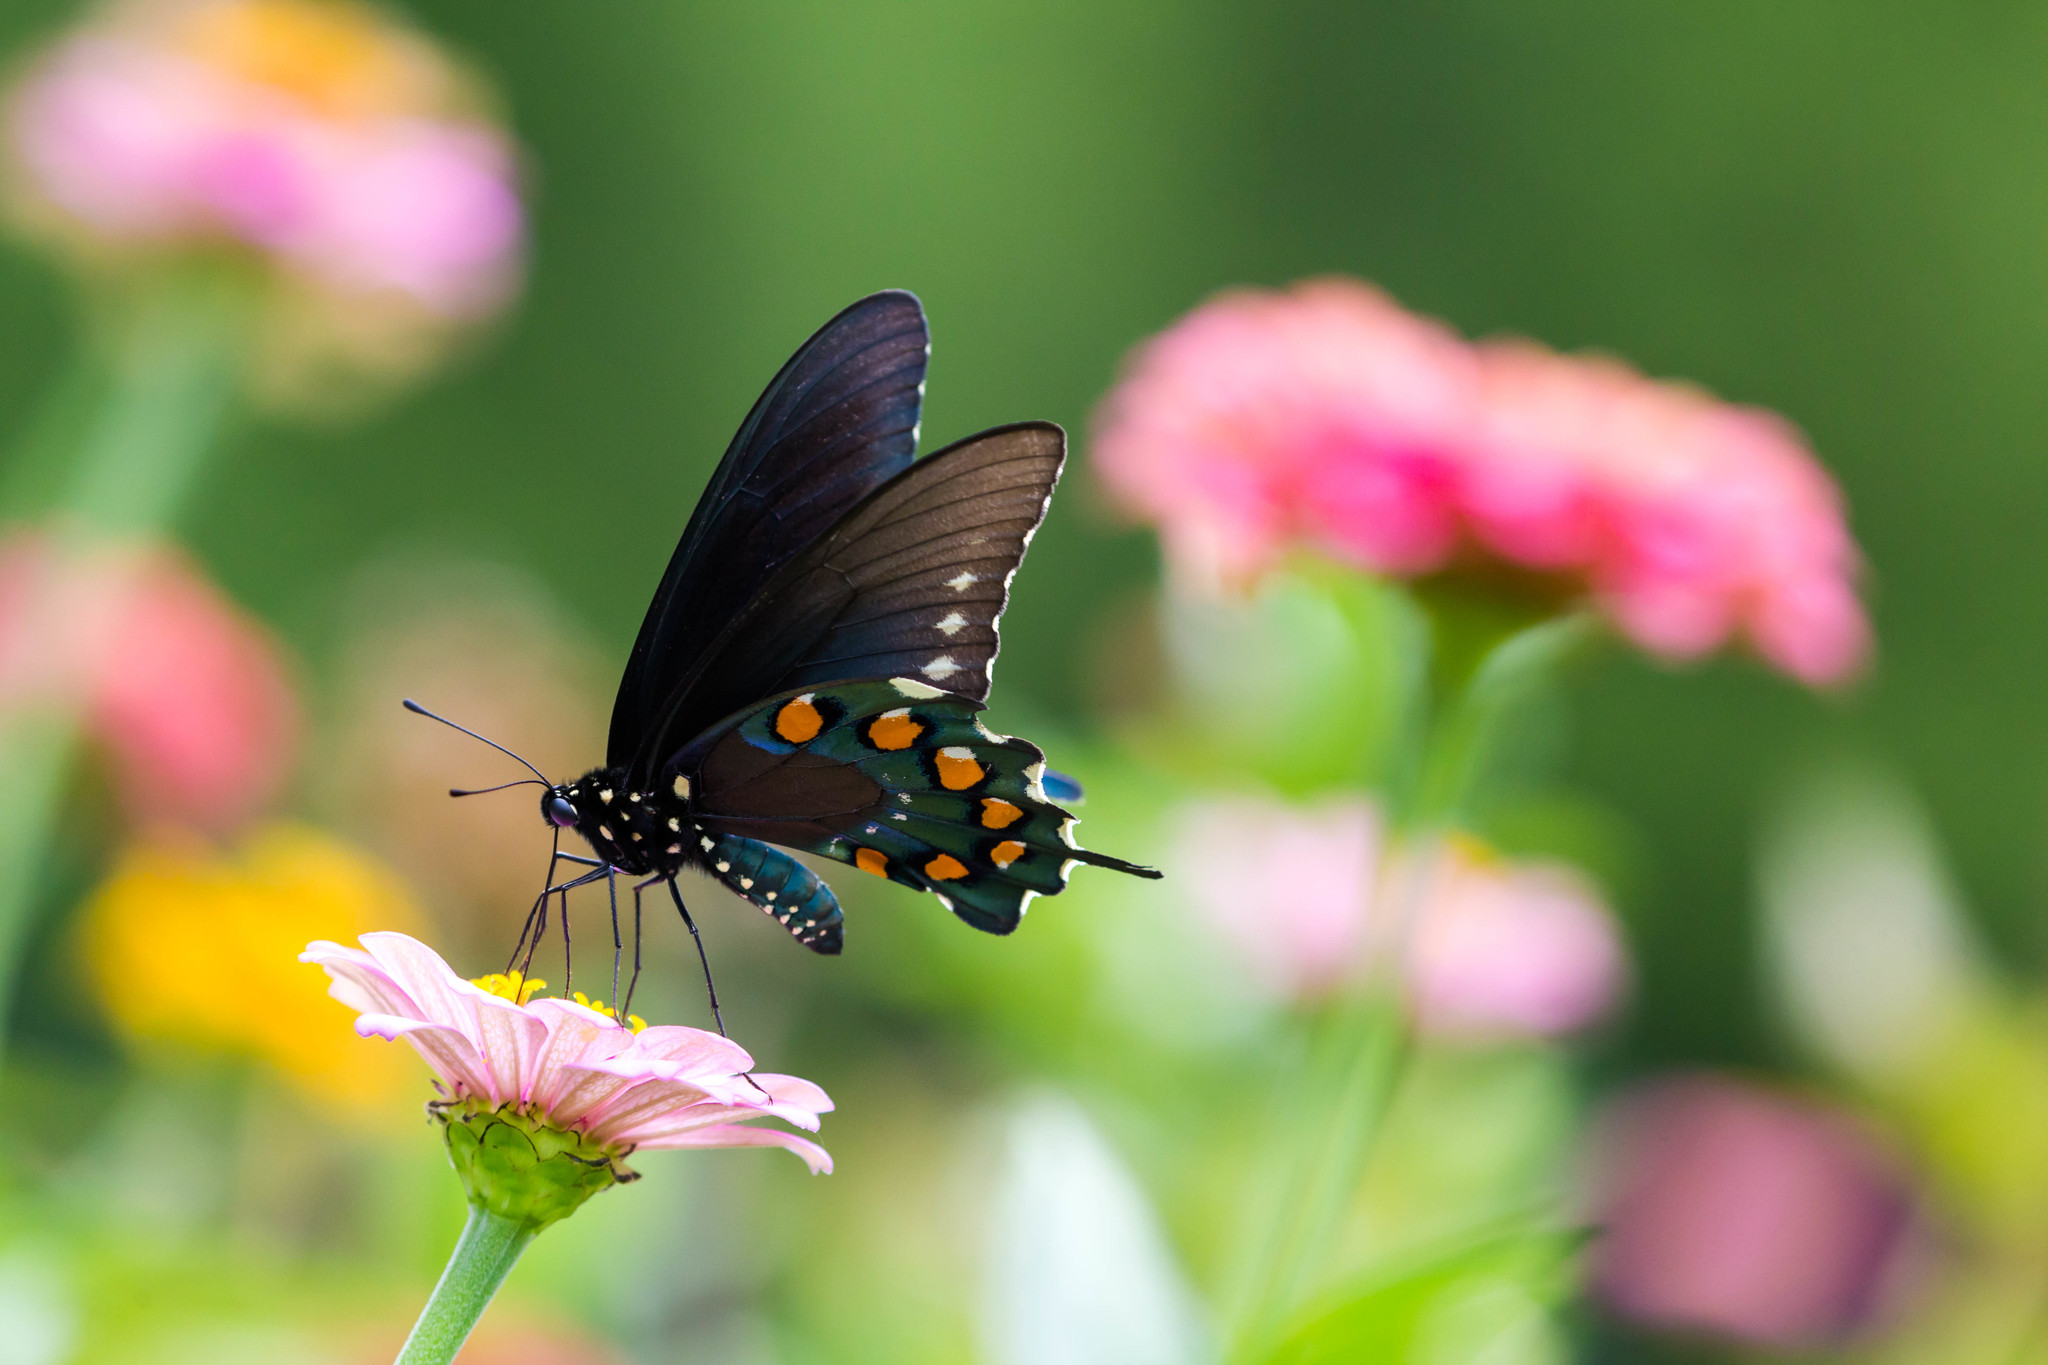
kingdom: Animalia
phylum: Arthropoda
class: Insecta
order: Lepidoptera
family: Papilionidae
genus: Battus
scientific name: Battus philenor
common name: Pipevine swallowtail
